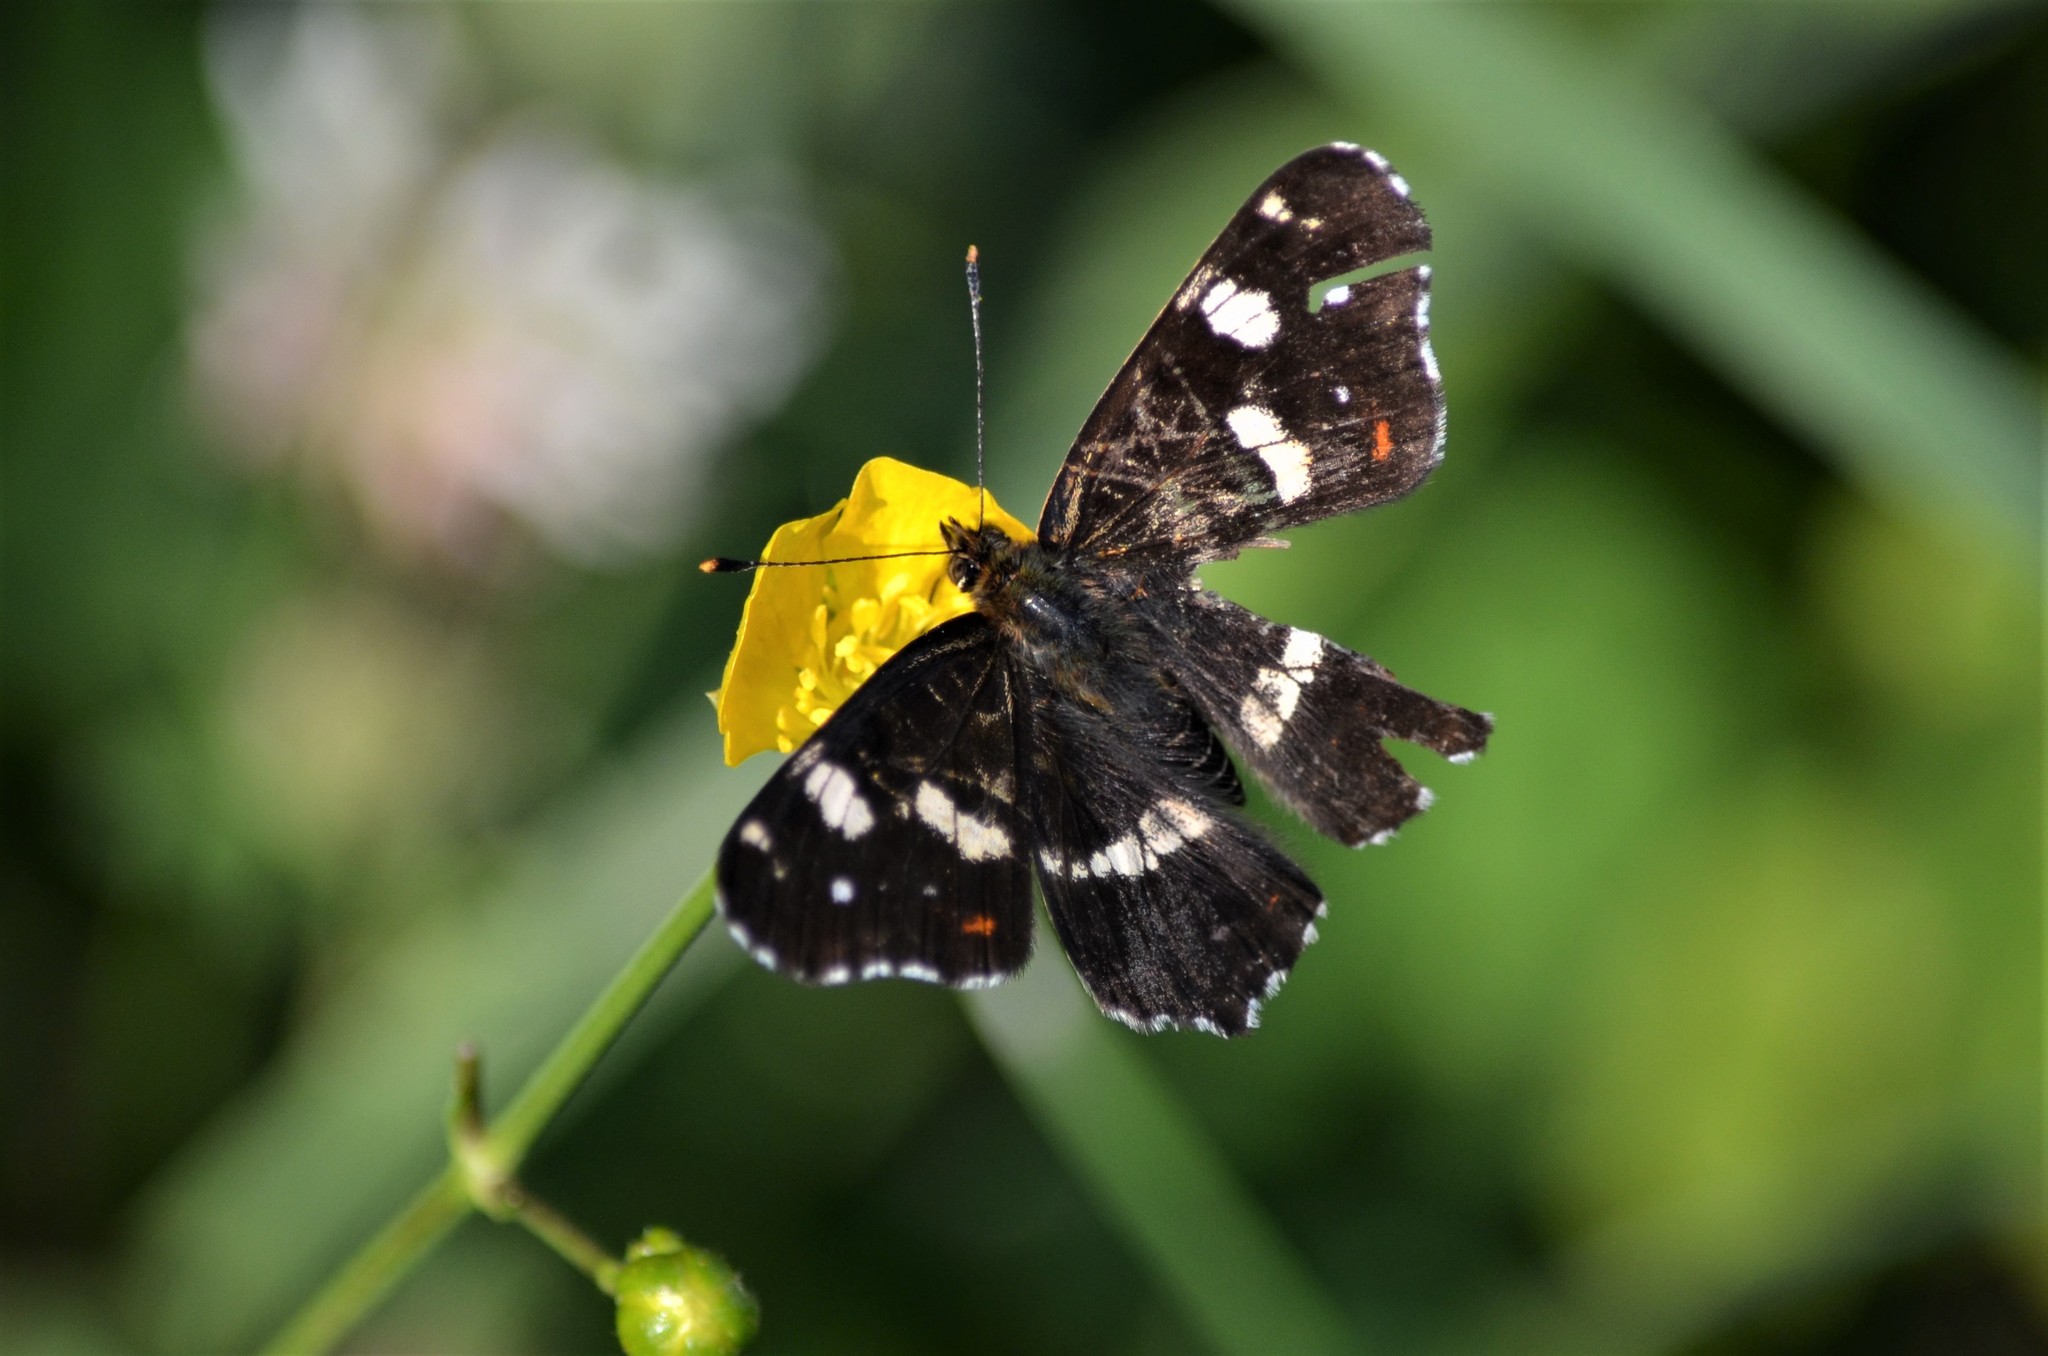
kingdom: Animalia
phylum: Arthropoda
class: Insecta
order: Lepidoptera
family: Nymphalidae
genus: Araschnia
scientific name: Araschnia levana
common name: Map butterfly
